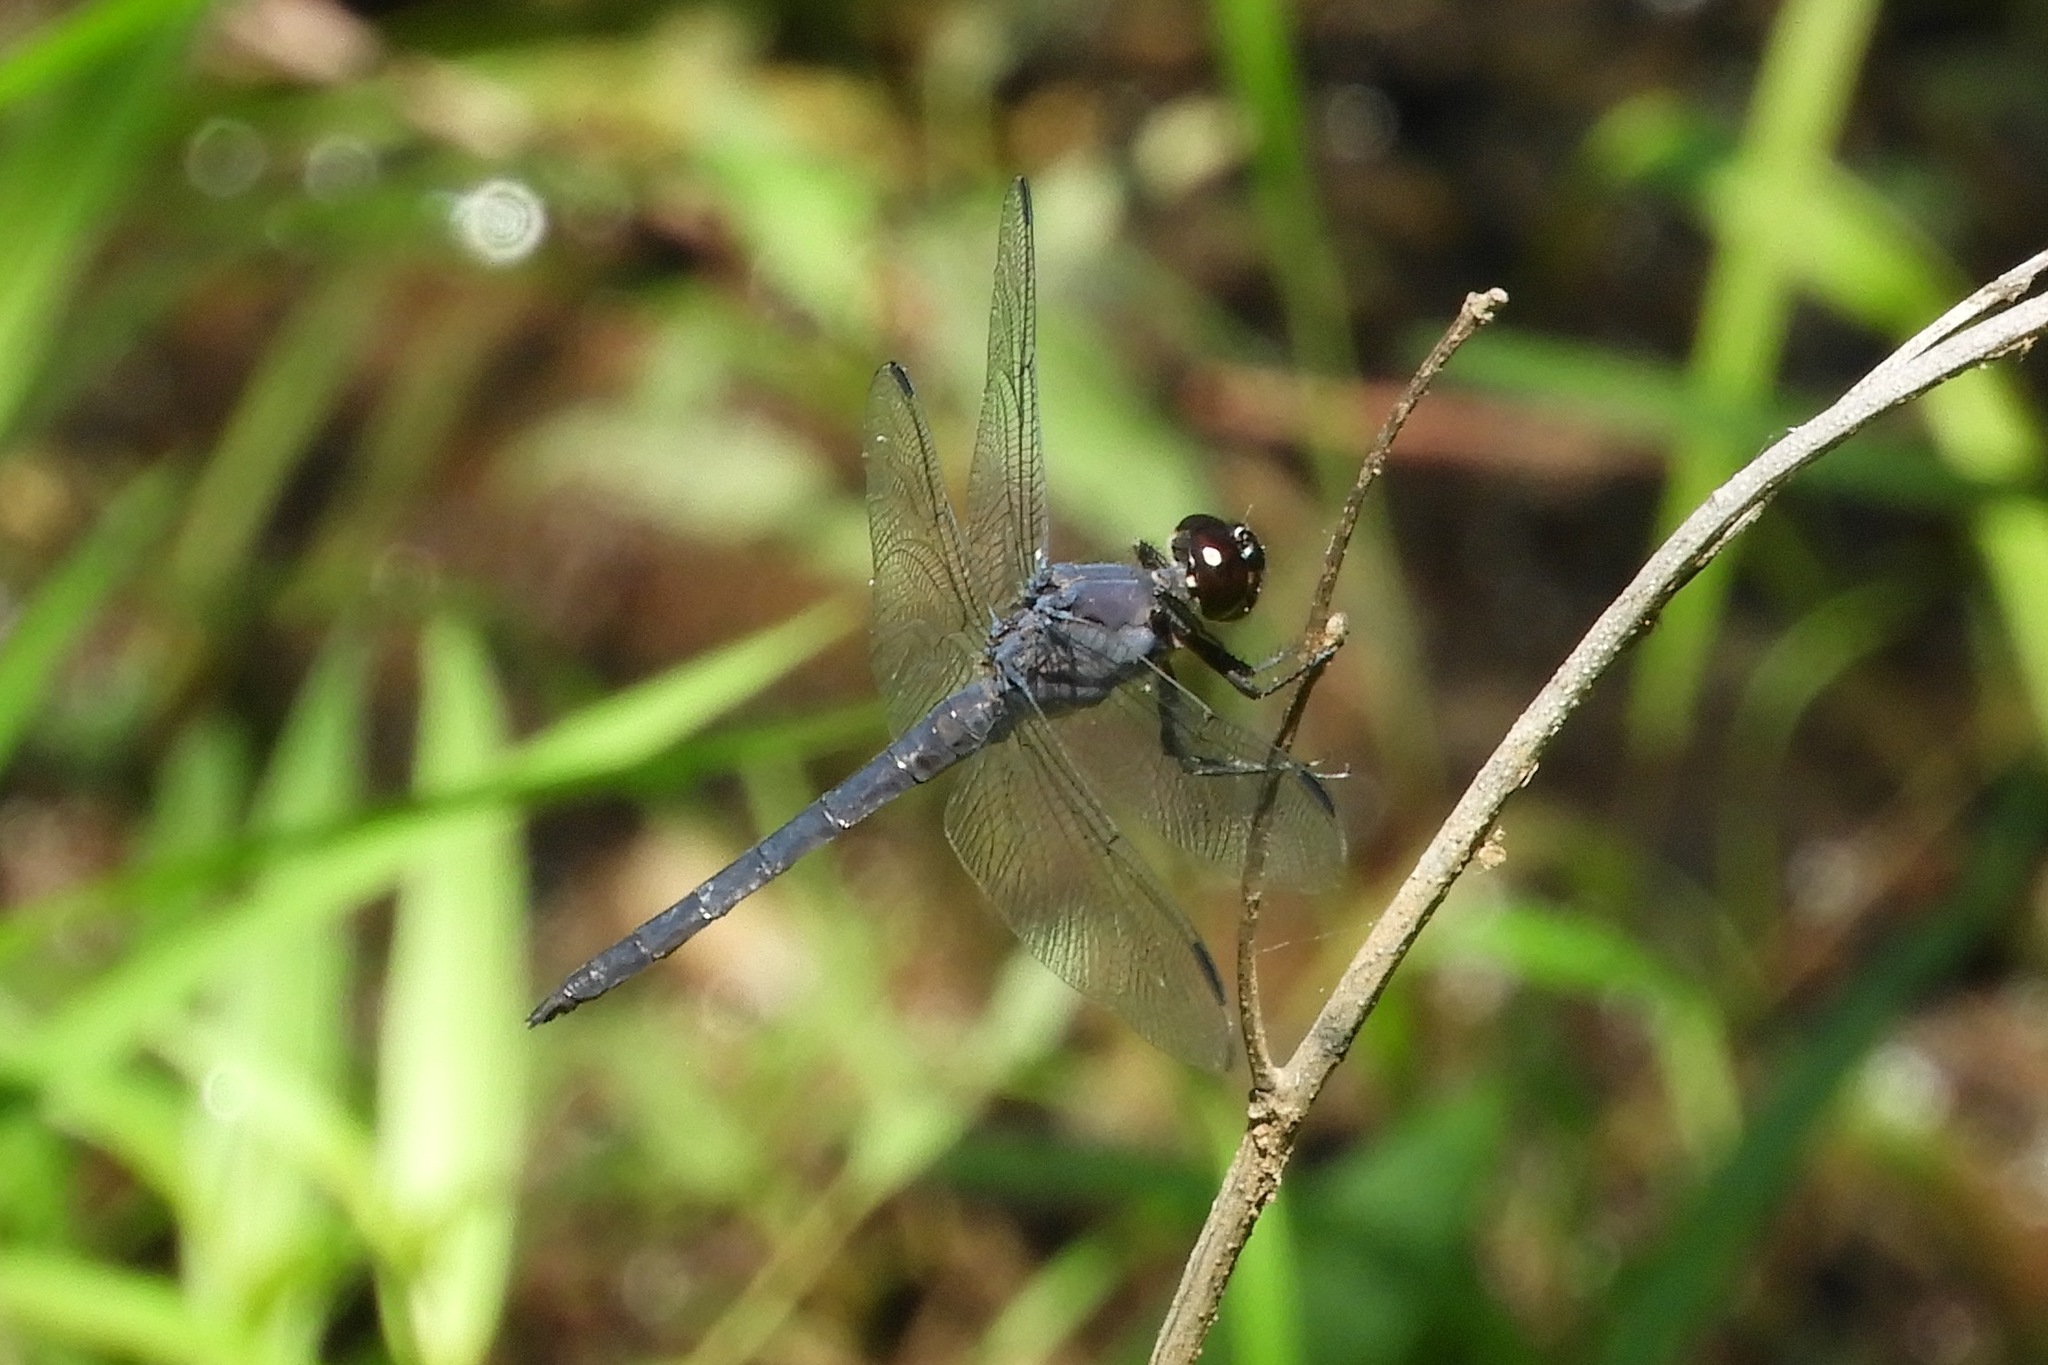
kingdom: Animalia
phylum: Arthropoda
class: Insecta
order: Odonata
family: Libellulidae
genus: Libellula
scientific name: Libellula incesta
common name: Slaty skimmer
